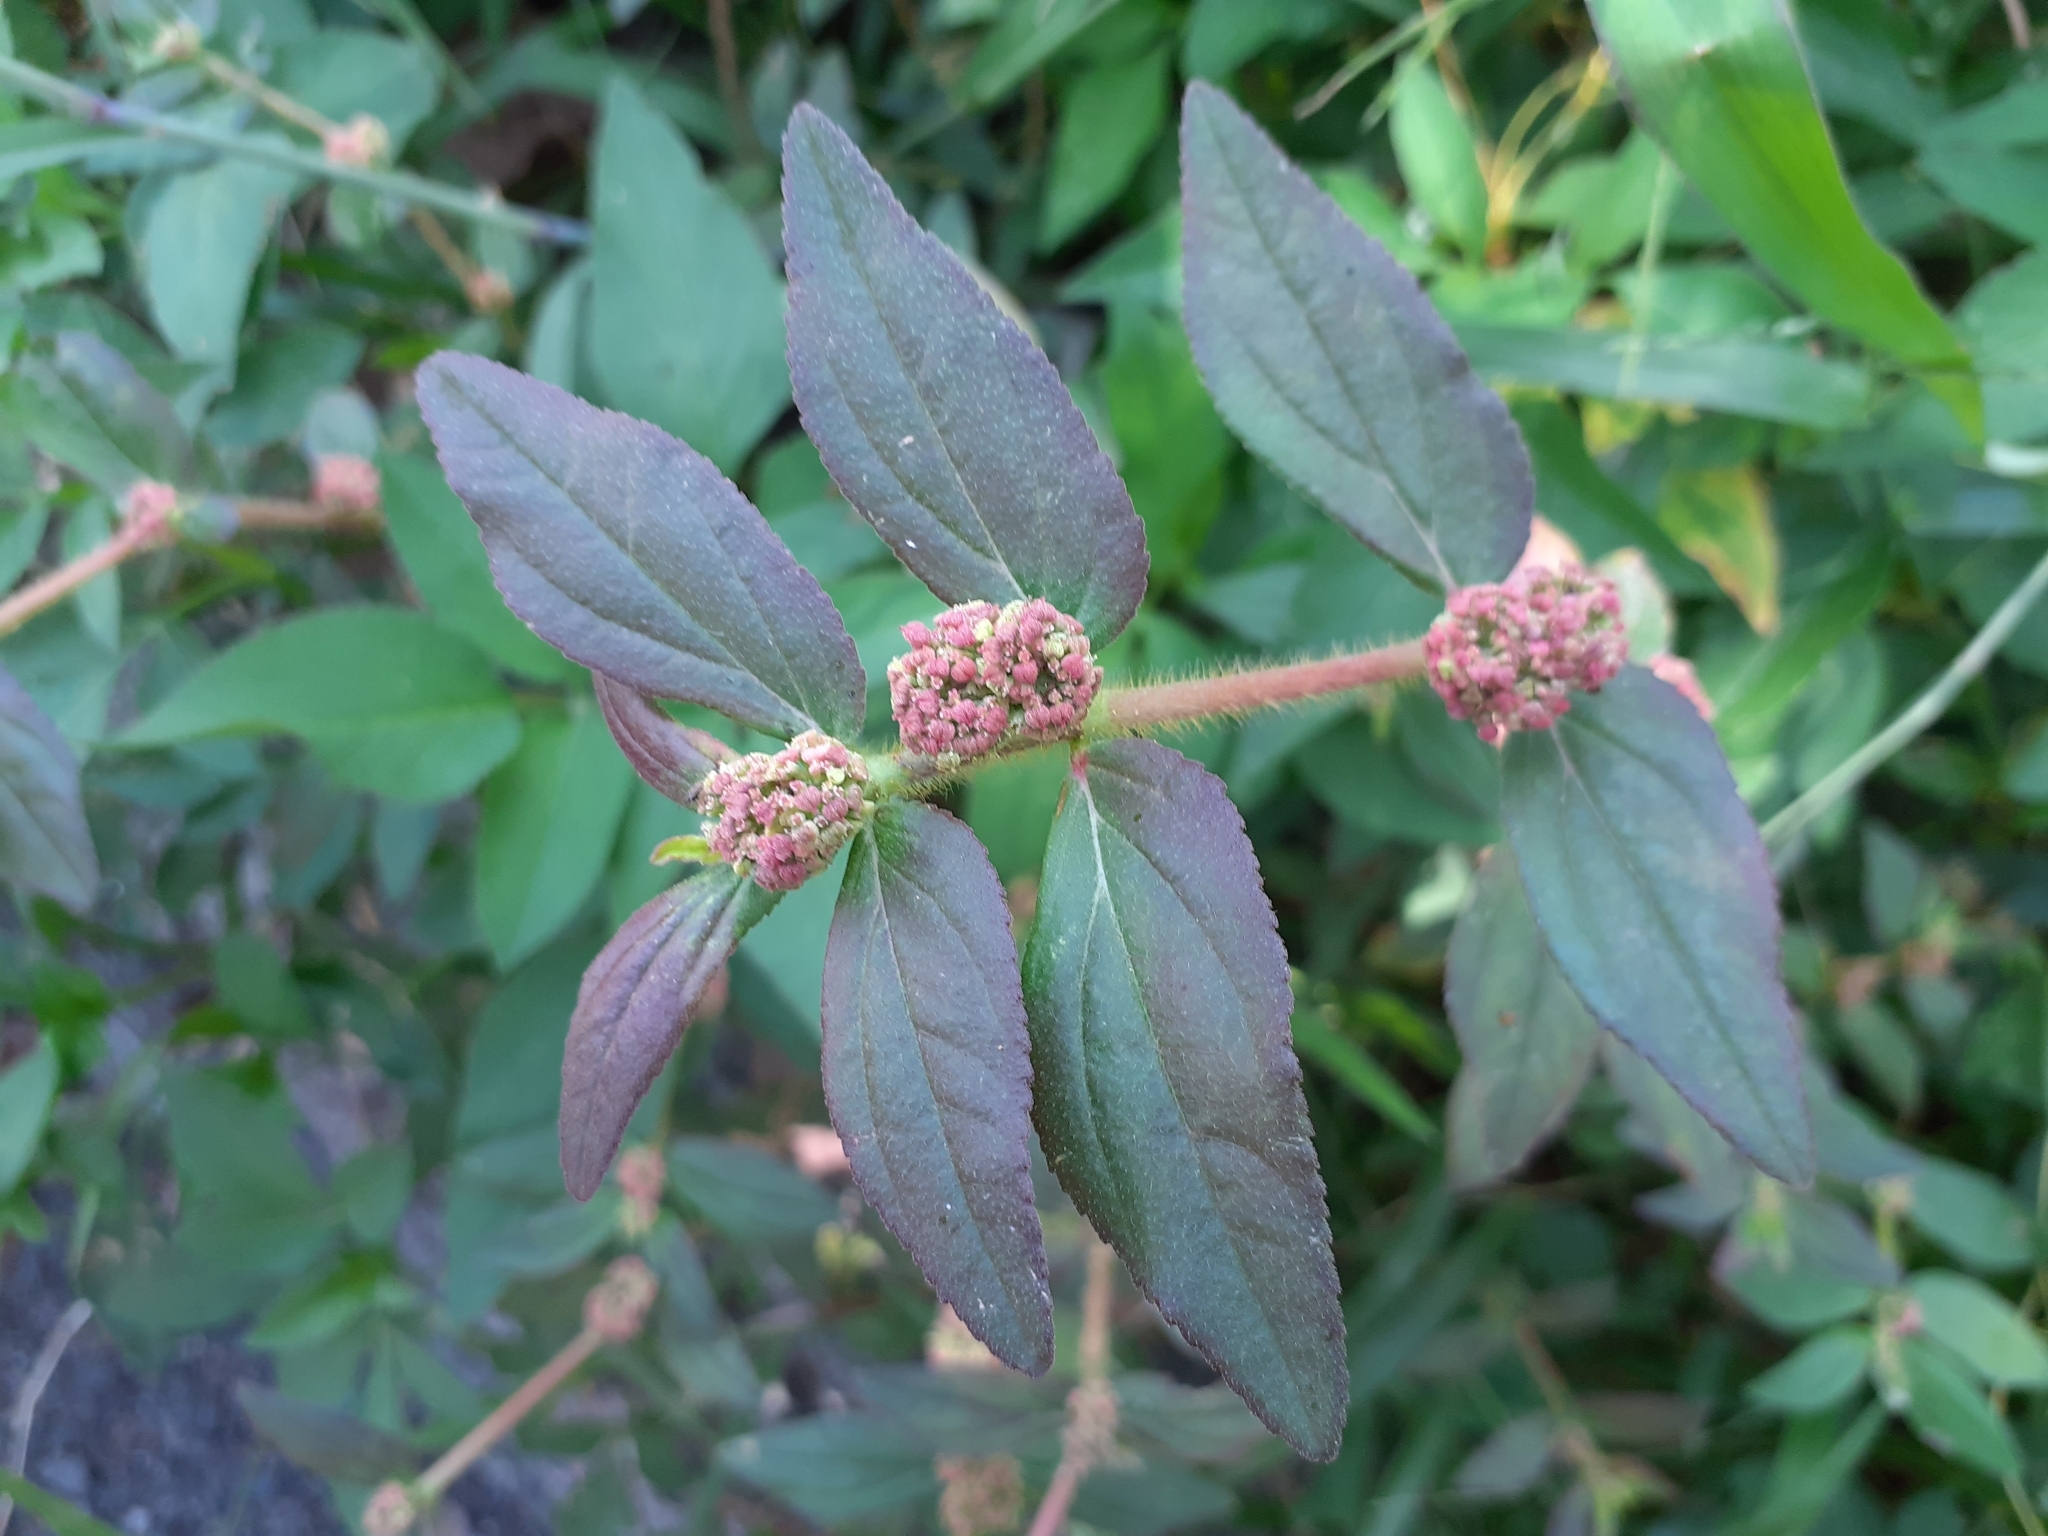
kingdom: Plantae
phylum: Tracheophyta
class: Magnoliopsida
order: Malpighiales
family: Euphorbiaceae
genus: Euphorbia
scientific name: Euphorbia hirta
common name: Pillpod sandmat
